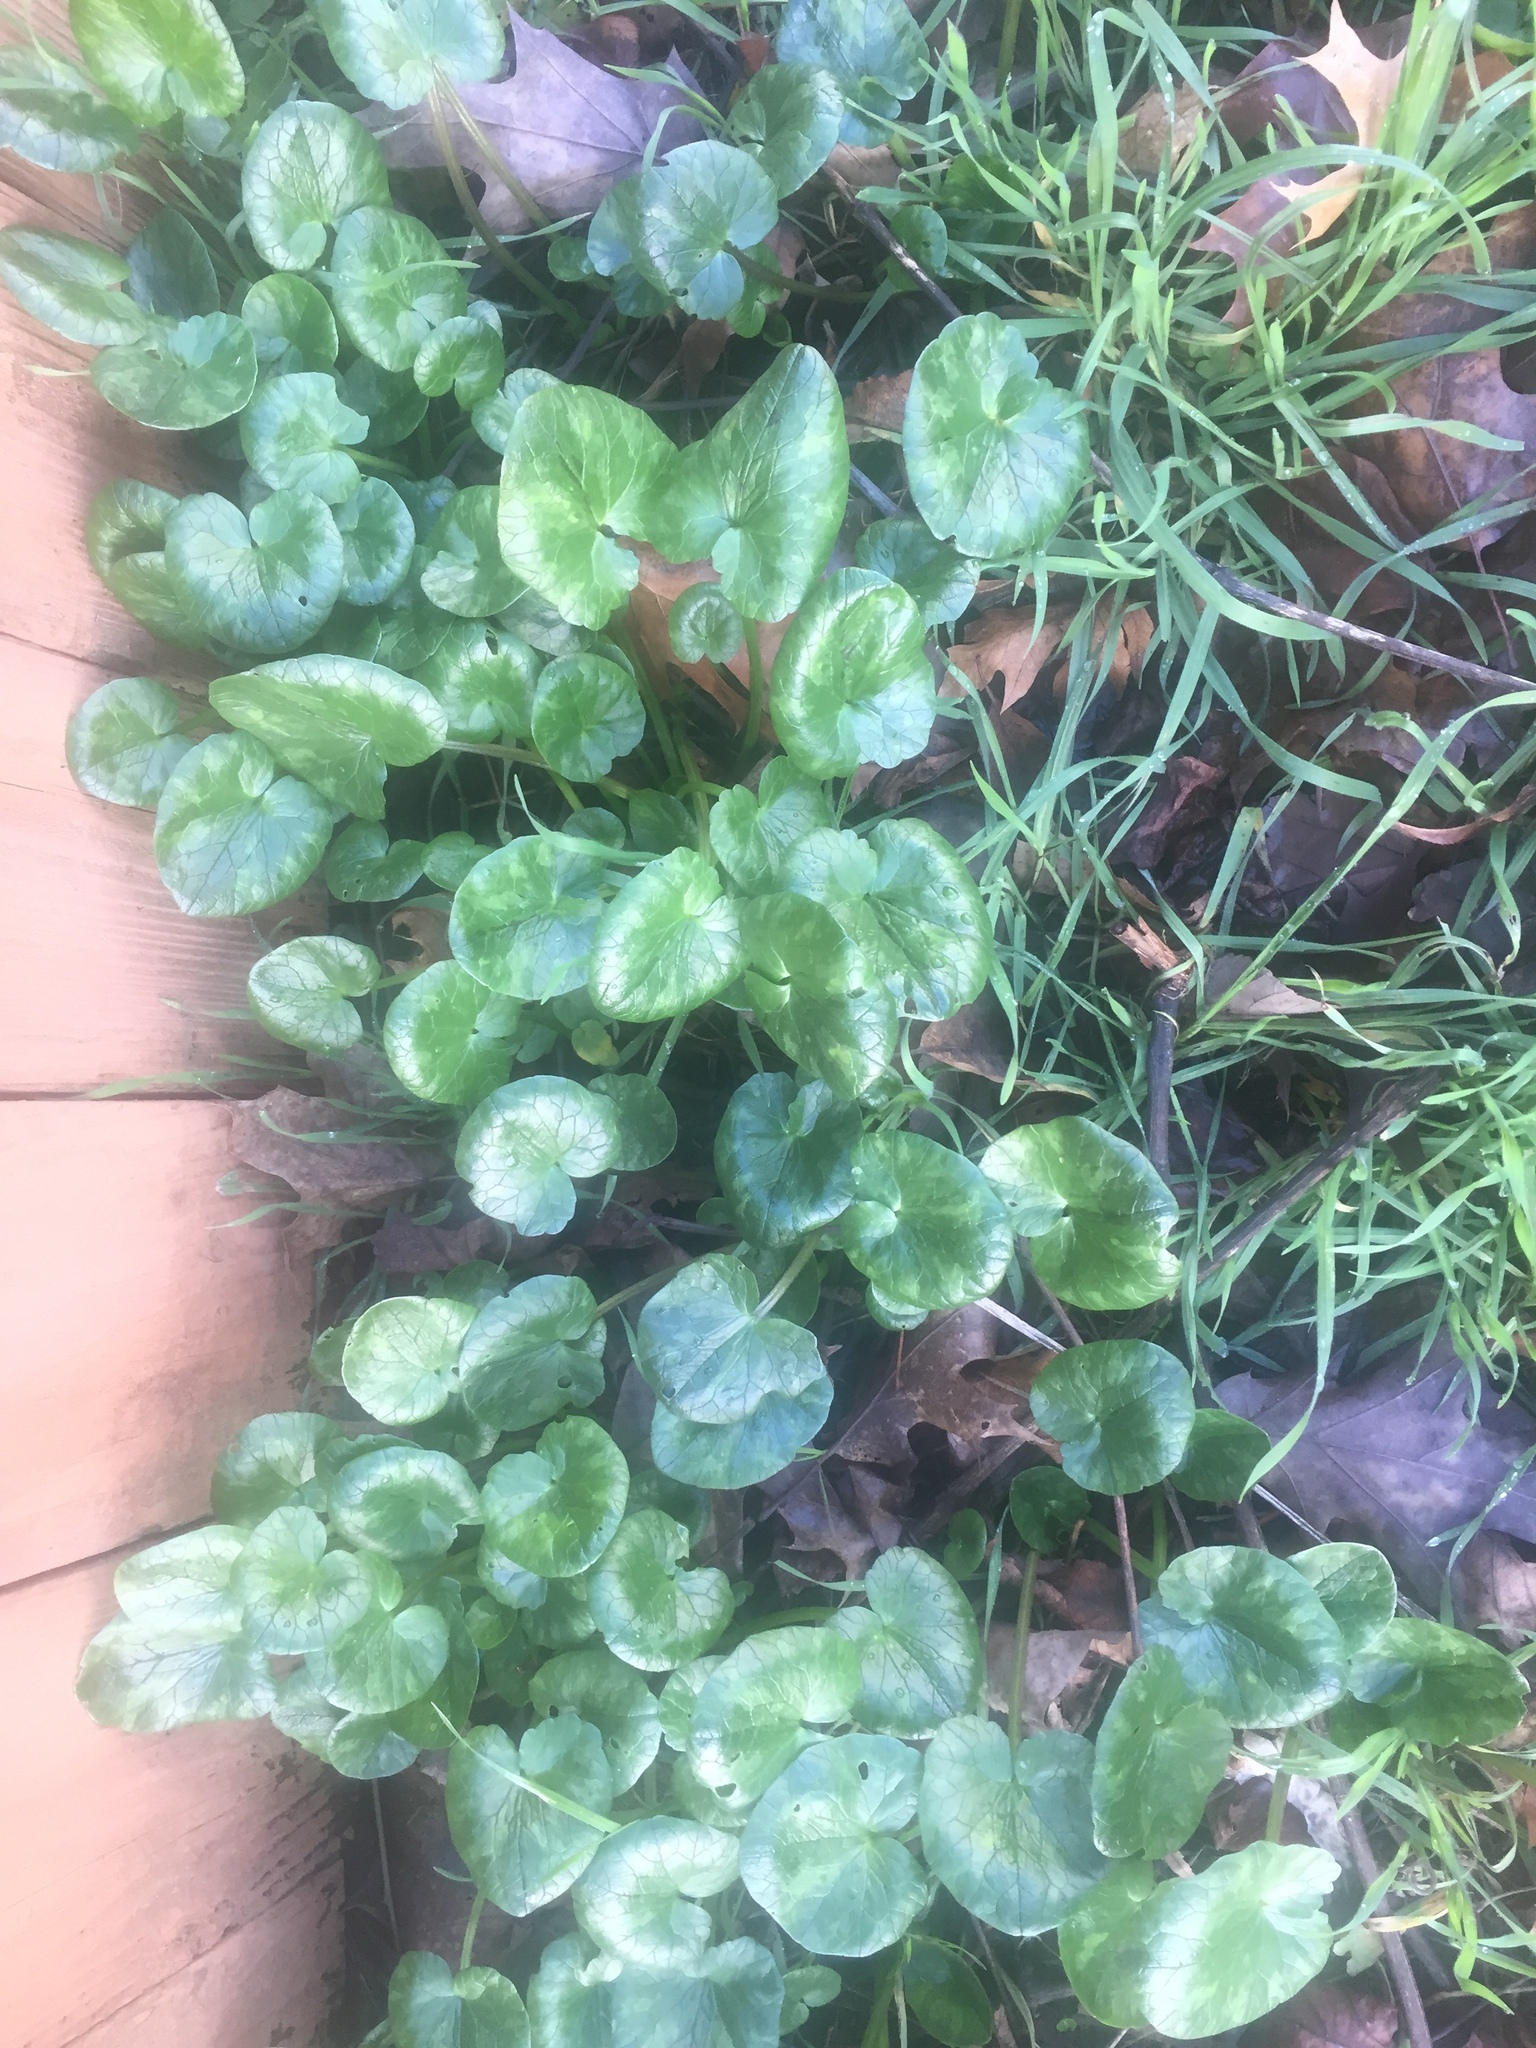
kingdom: Plantae
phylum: Tracheophyta
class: Magnoliopsida
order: Ranunculales
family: Ranunculaceae
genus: Ficaria
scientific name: Ficaria verna
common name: Lesser celandine
